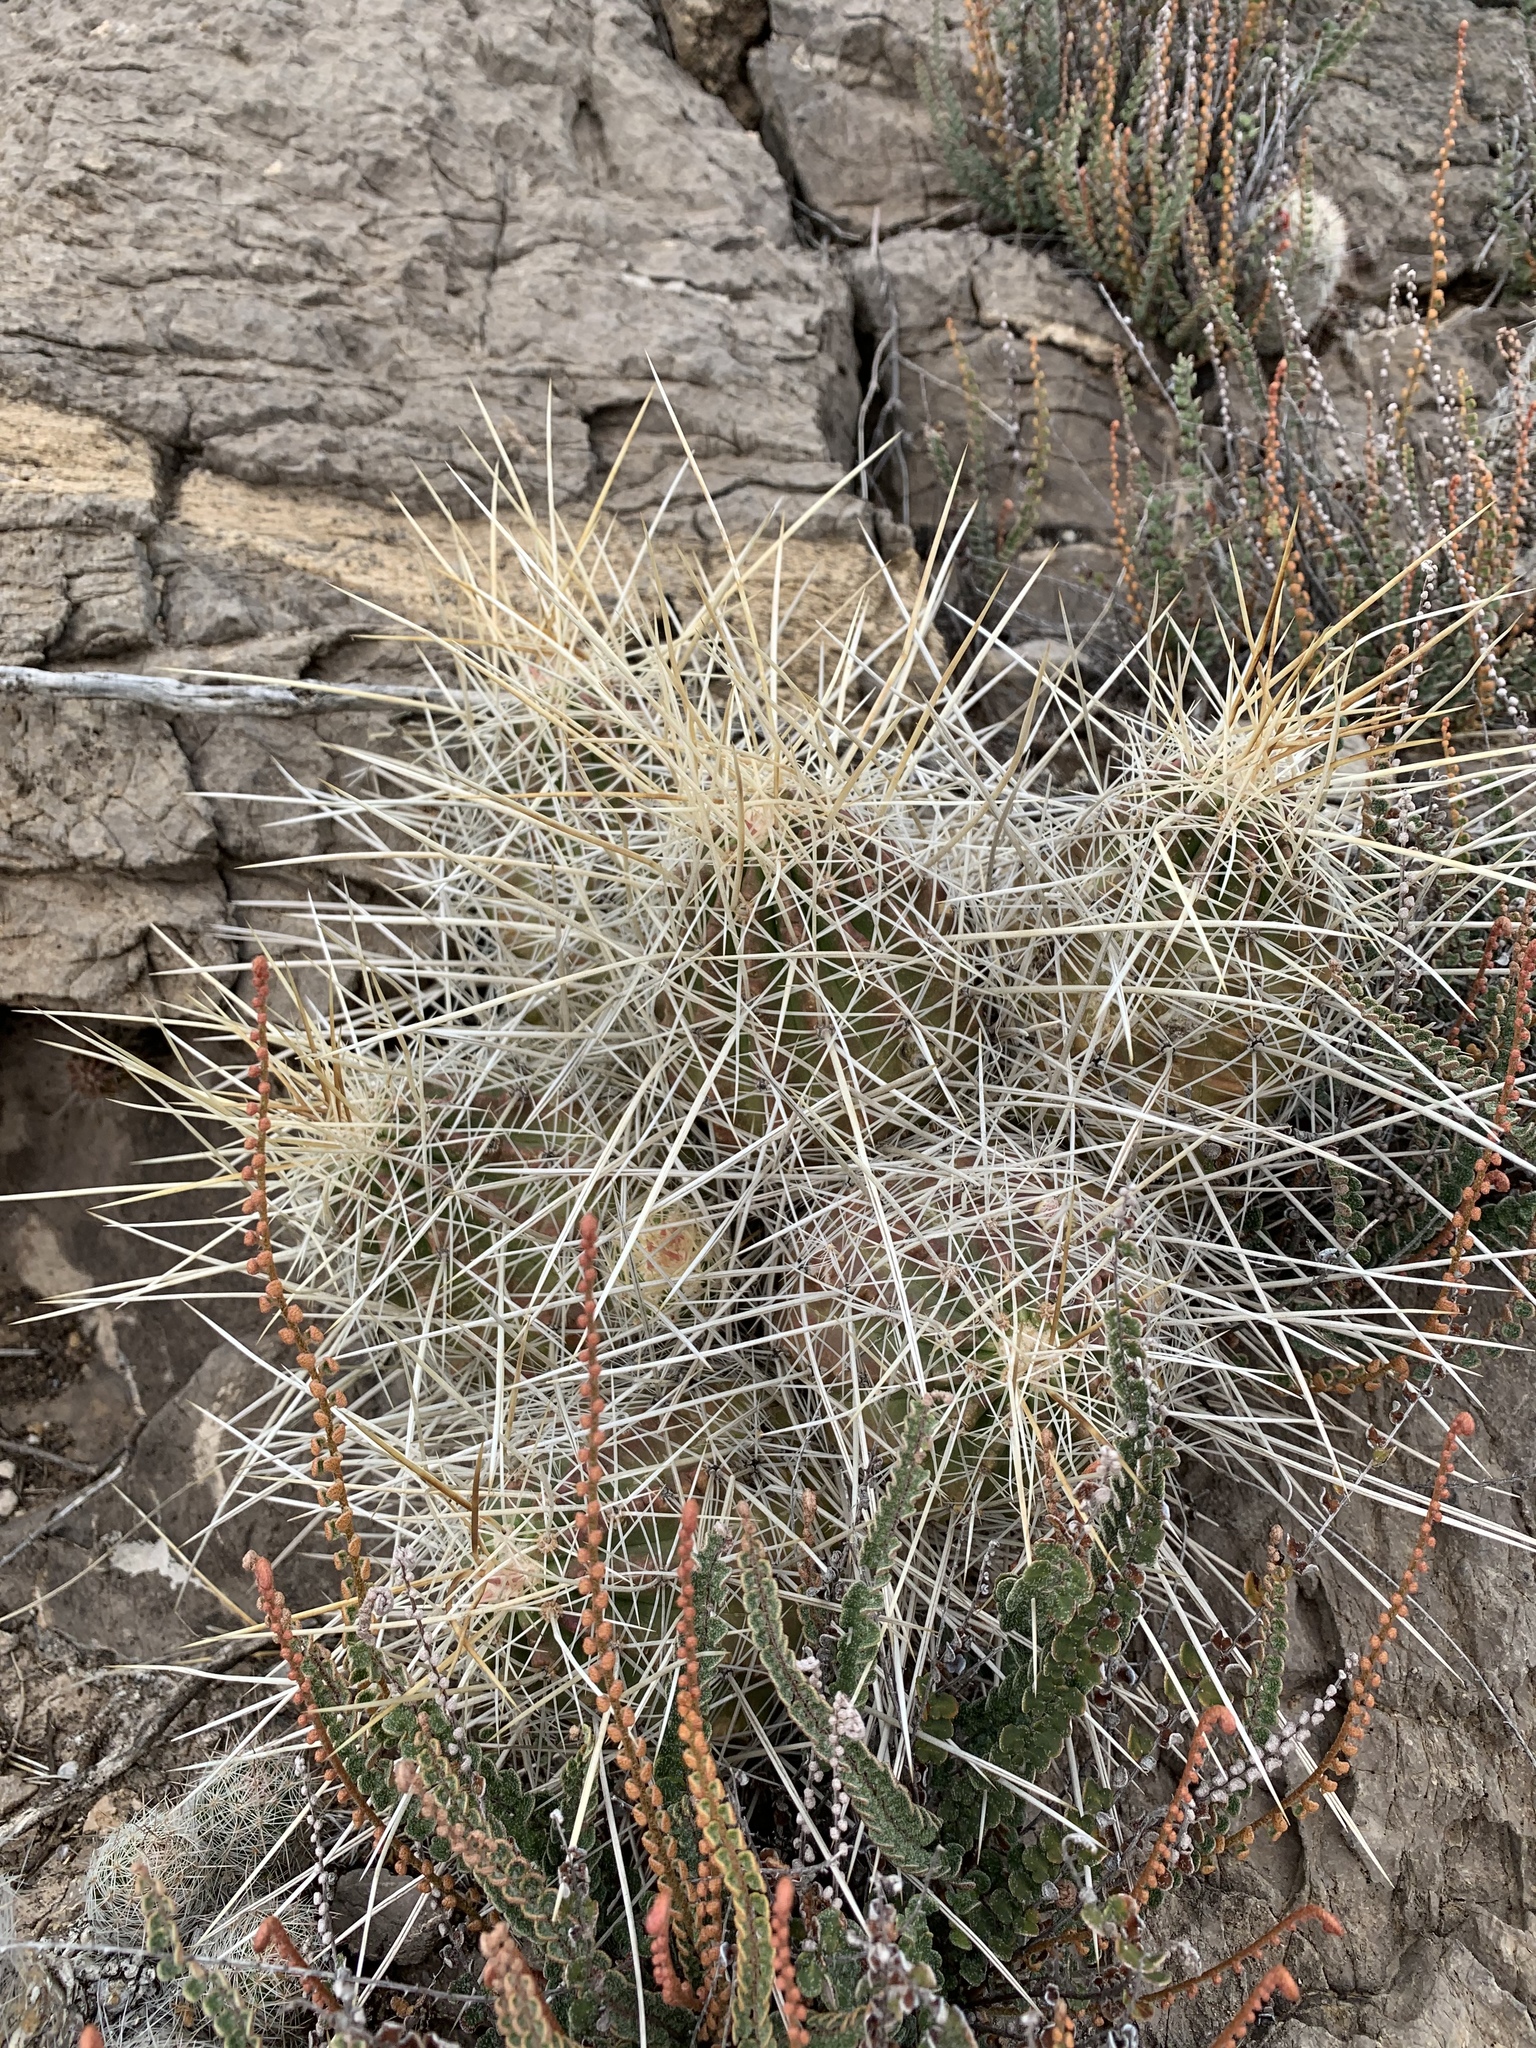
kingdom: Plantae
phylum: Tracheophyta
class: Magnoliopsida
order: Caryophyllales
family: Cactaceae
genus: Echinocereus
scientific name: Echinocereus stramineus
